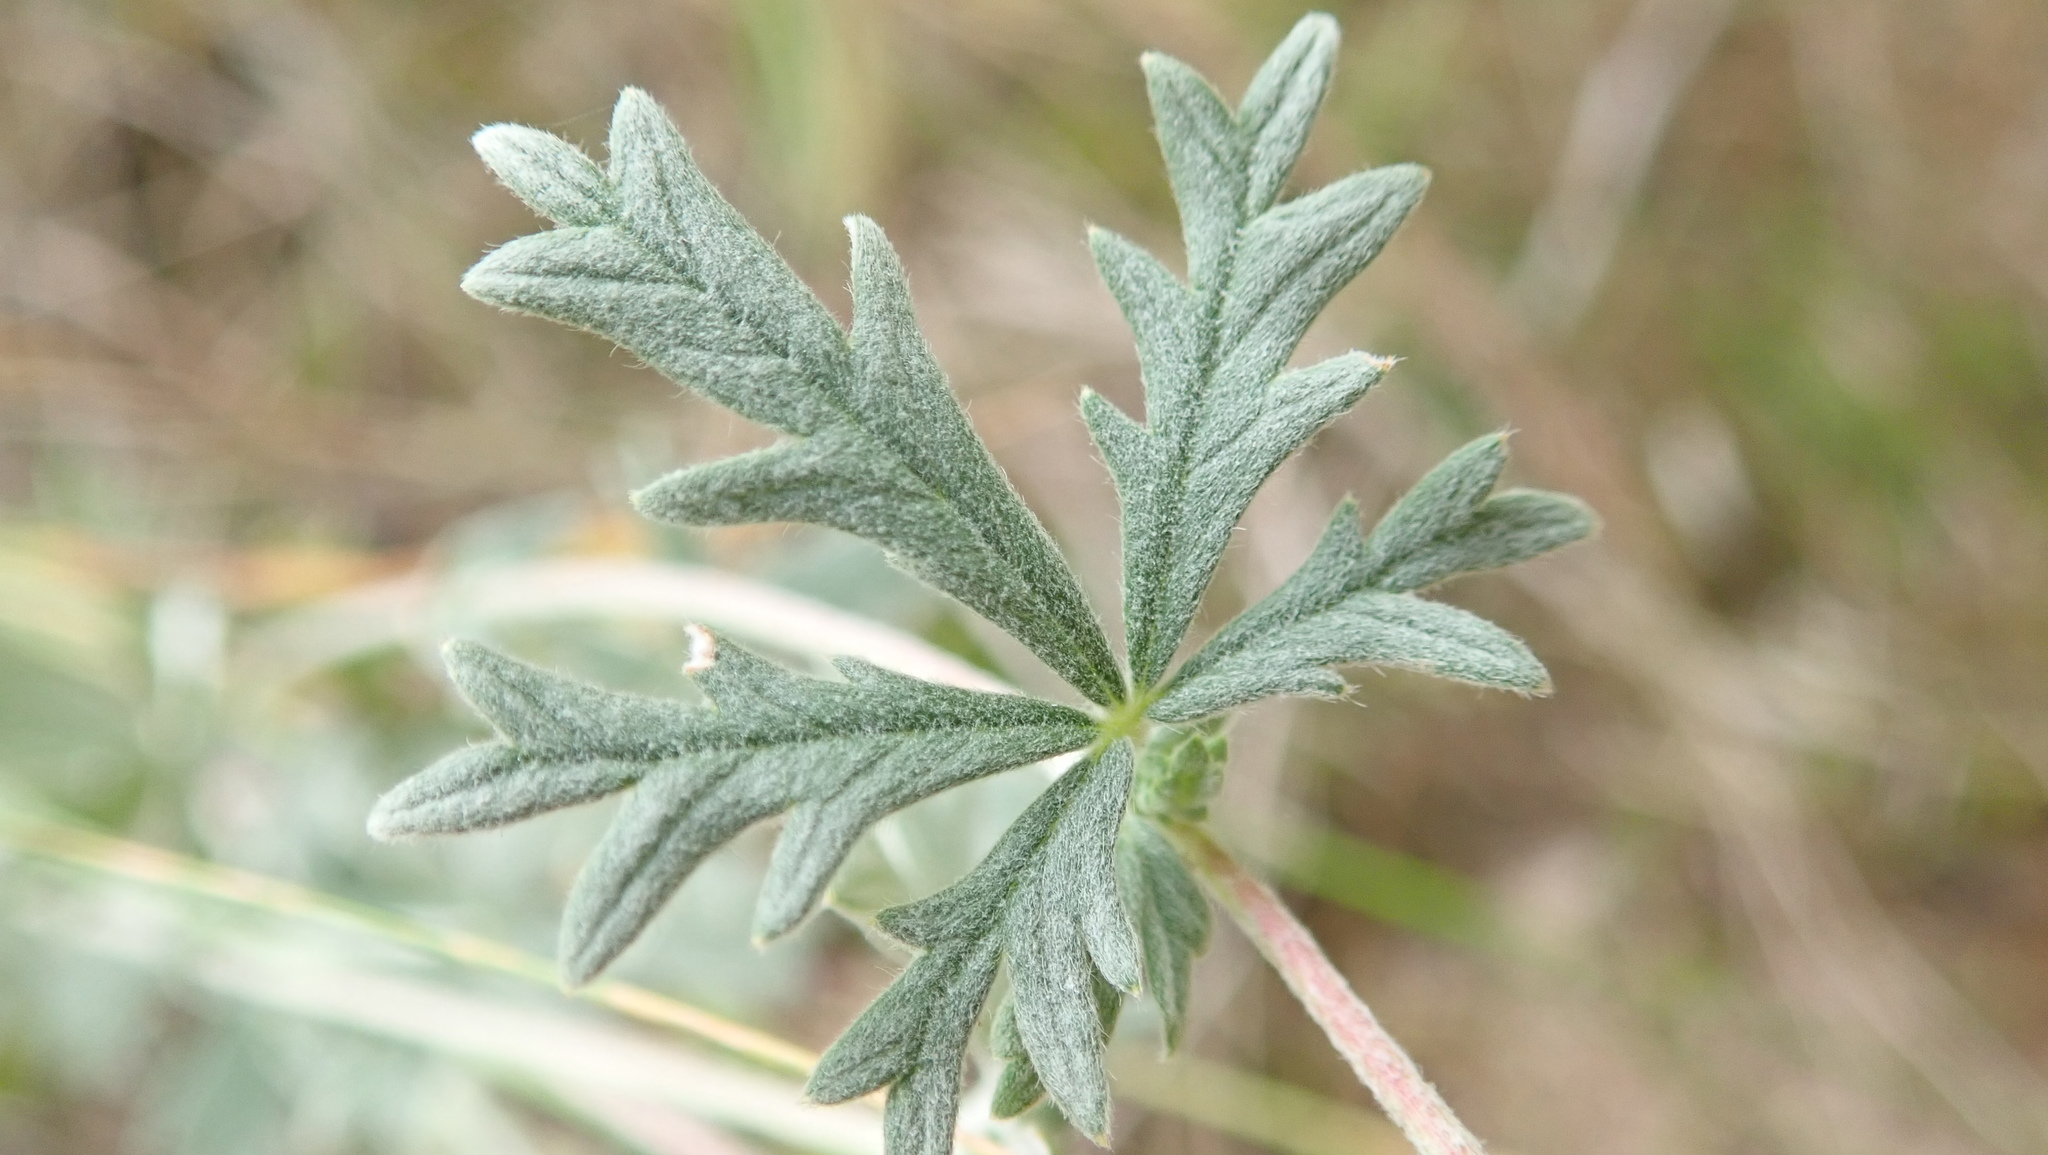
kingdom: Plantae
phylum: Tracheophyta
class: Magnoliopsida
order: Rosales
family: Rosaceae
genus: Potentilla
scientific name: Potentilla argentea
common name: Hoary cinquefoil
